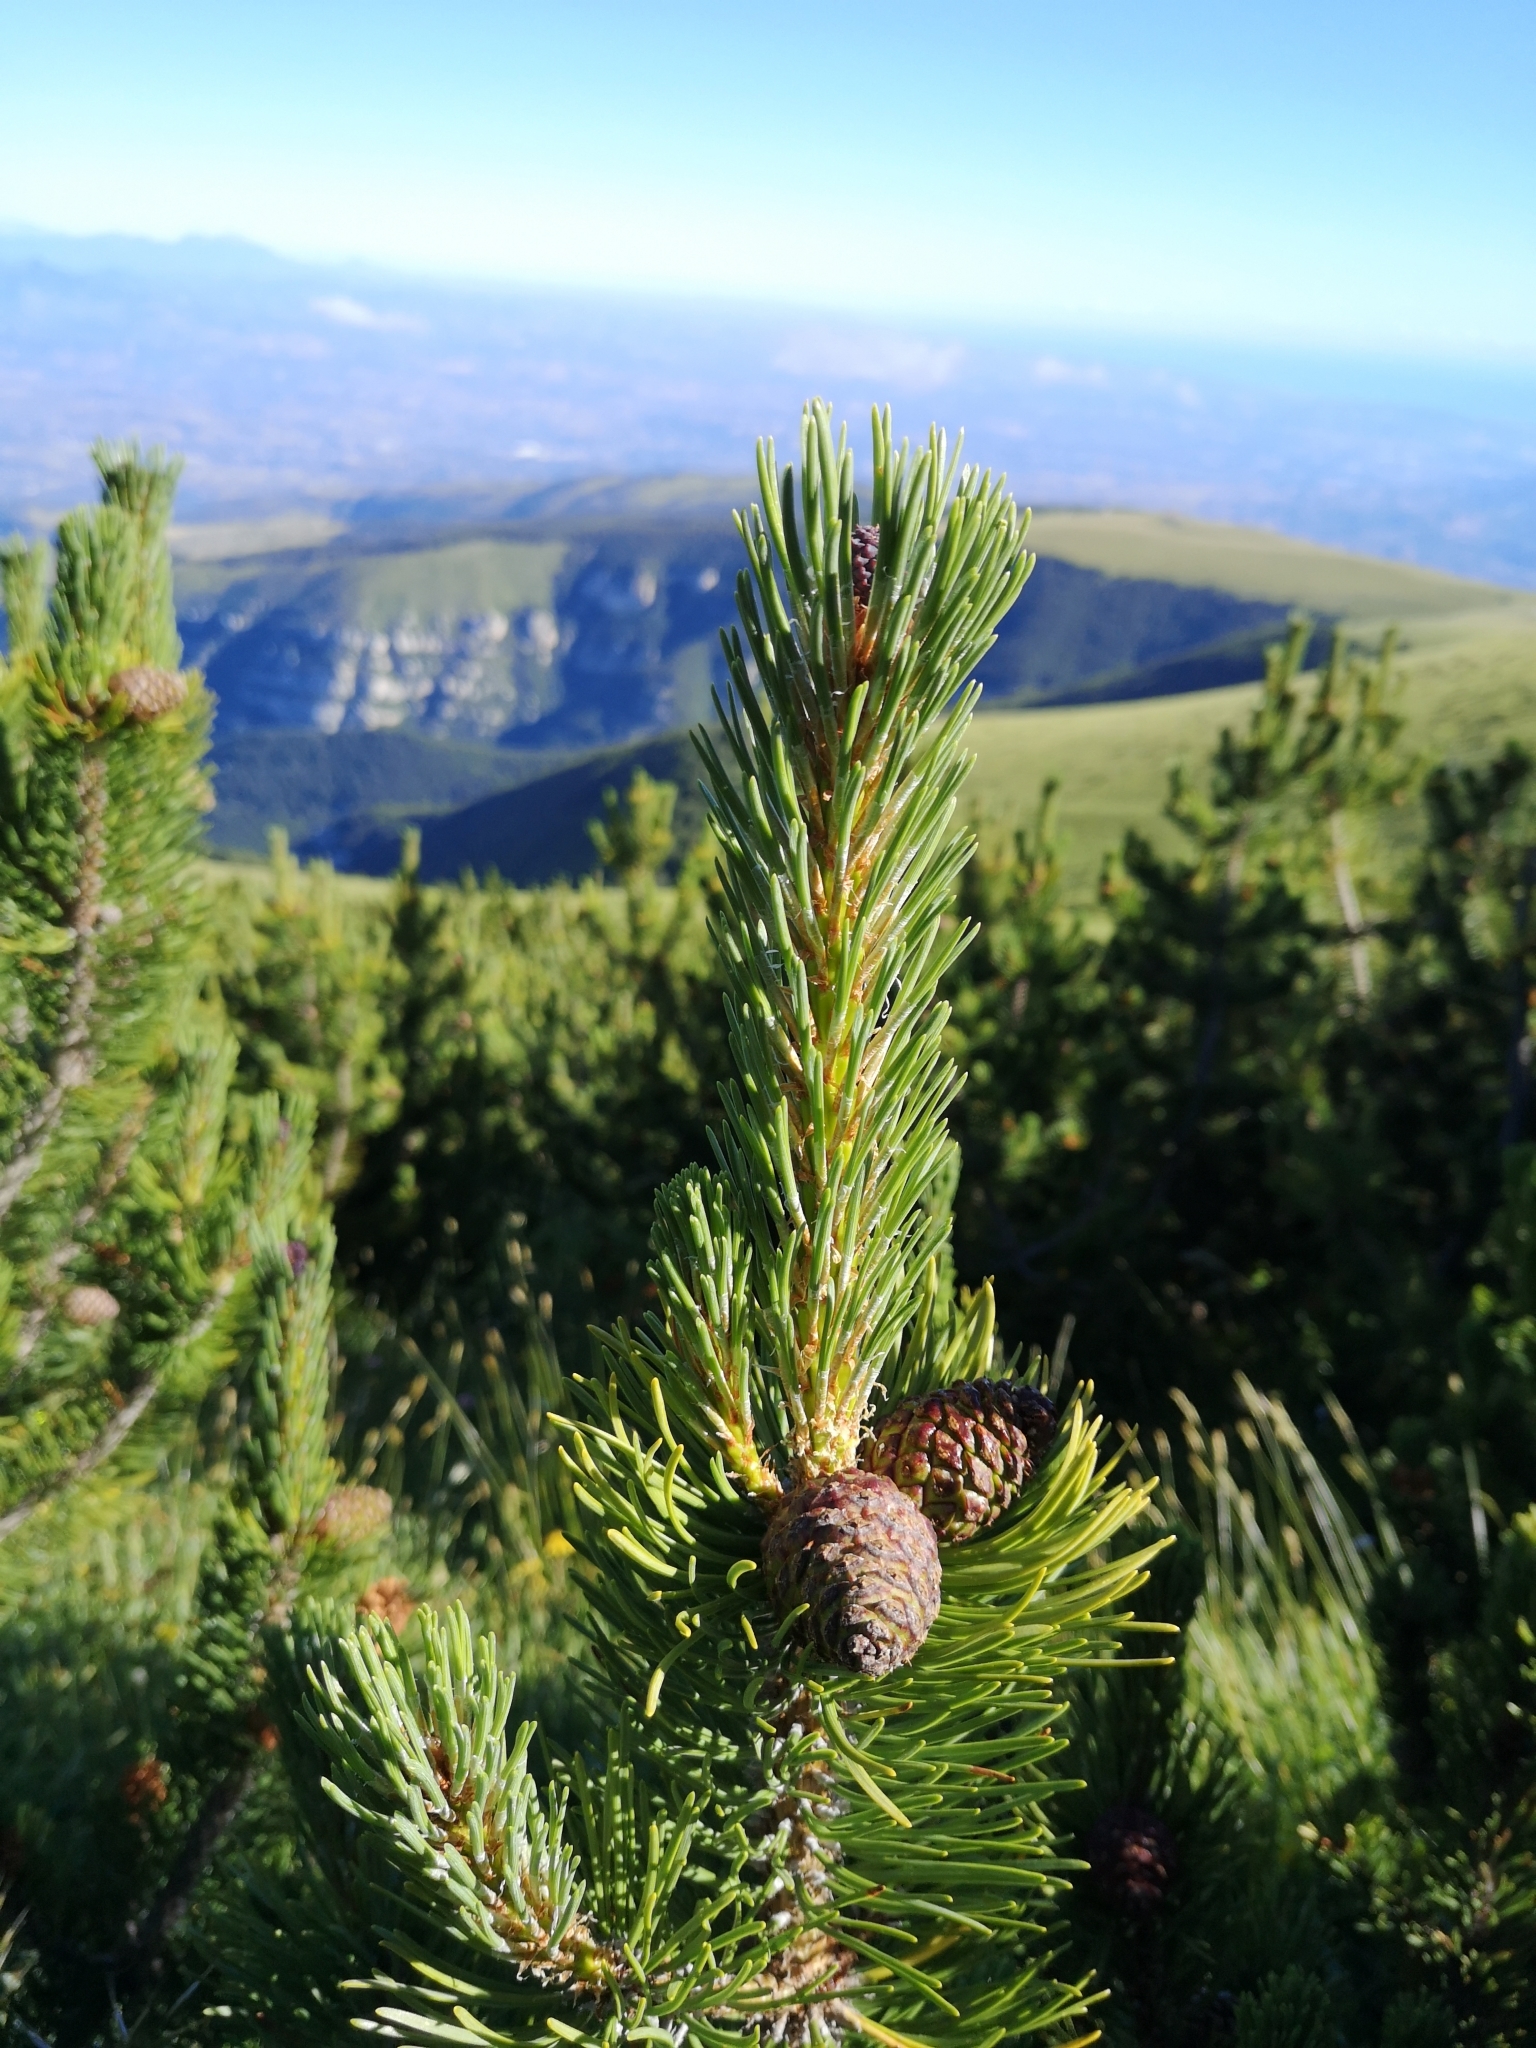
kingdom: Plantae
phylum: Tracheophyta
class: Pinopsida
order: Pinales
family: Pinaceae
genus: Pinus
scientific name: Pinus mugo
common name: Mugo pine
